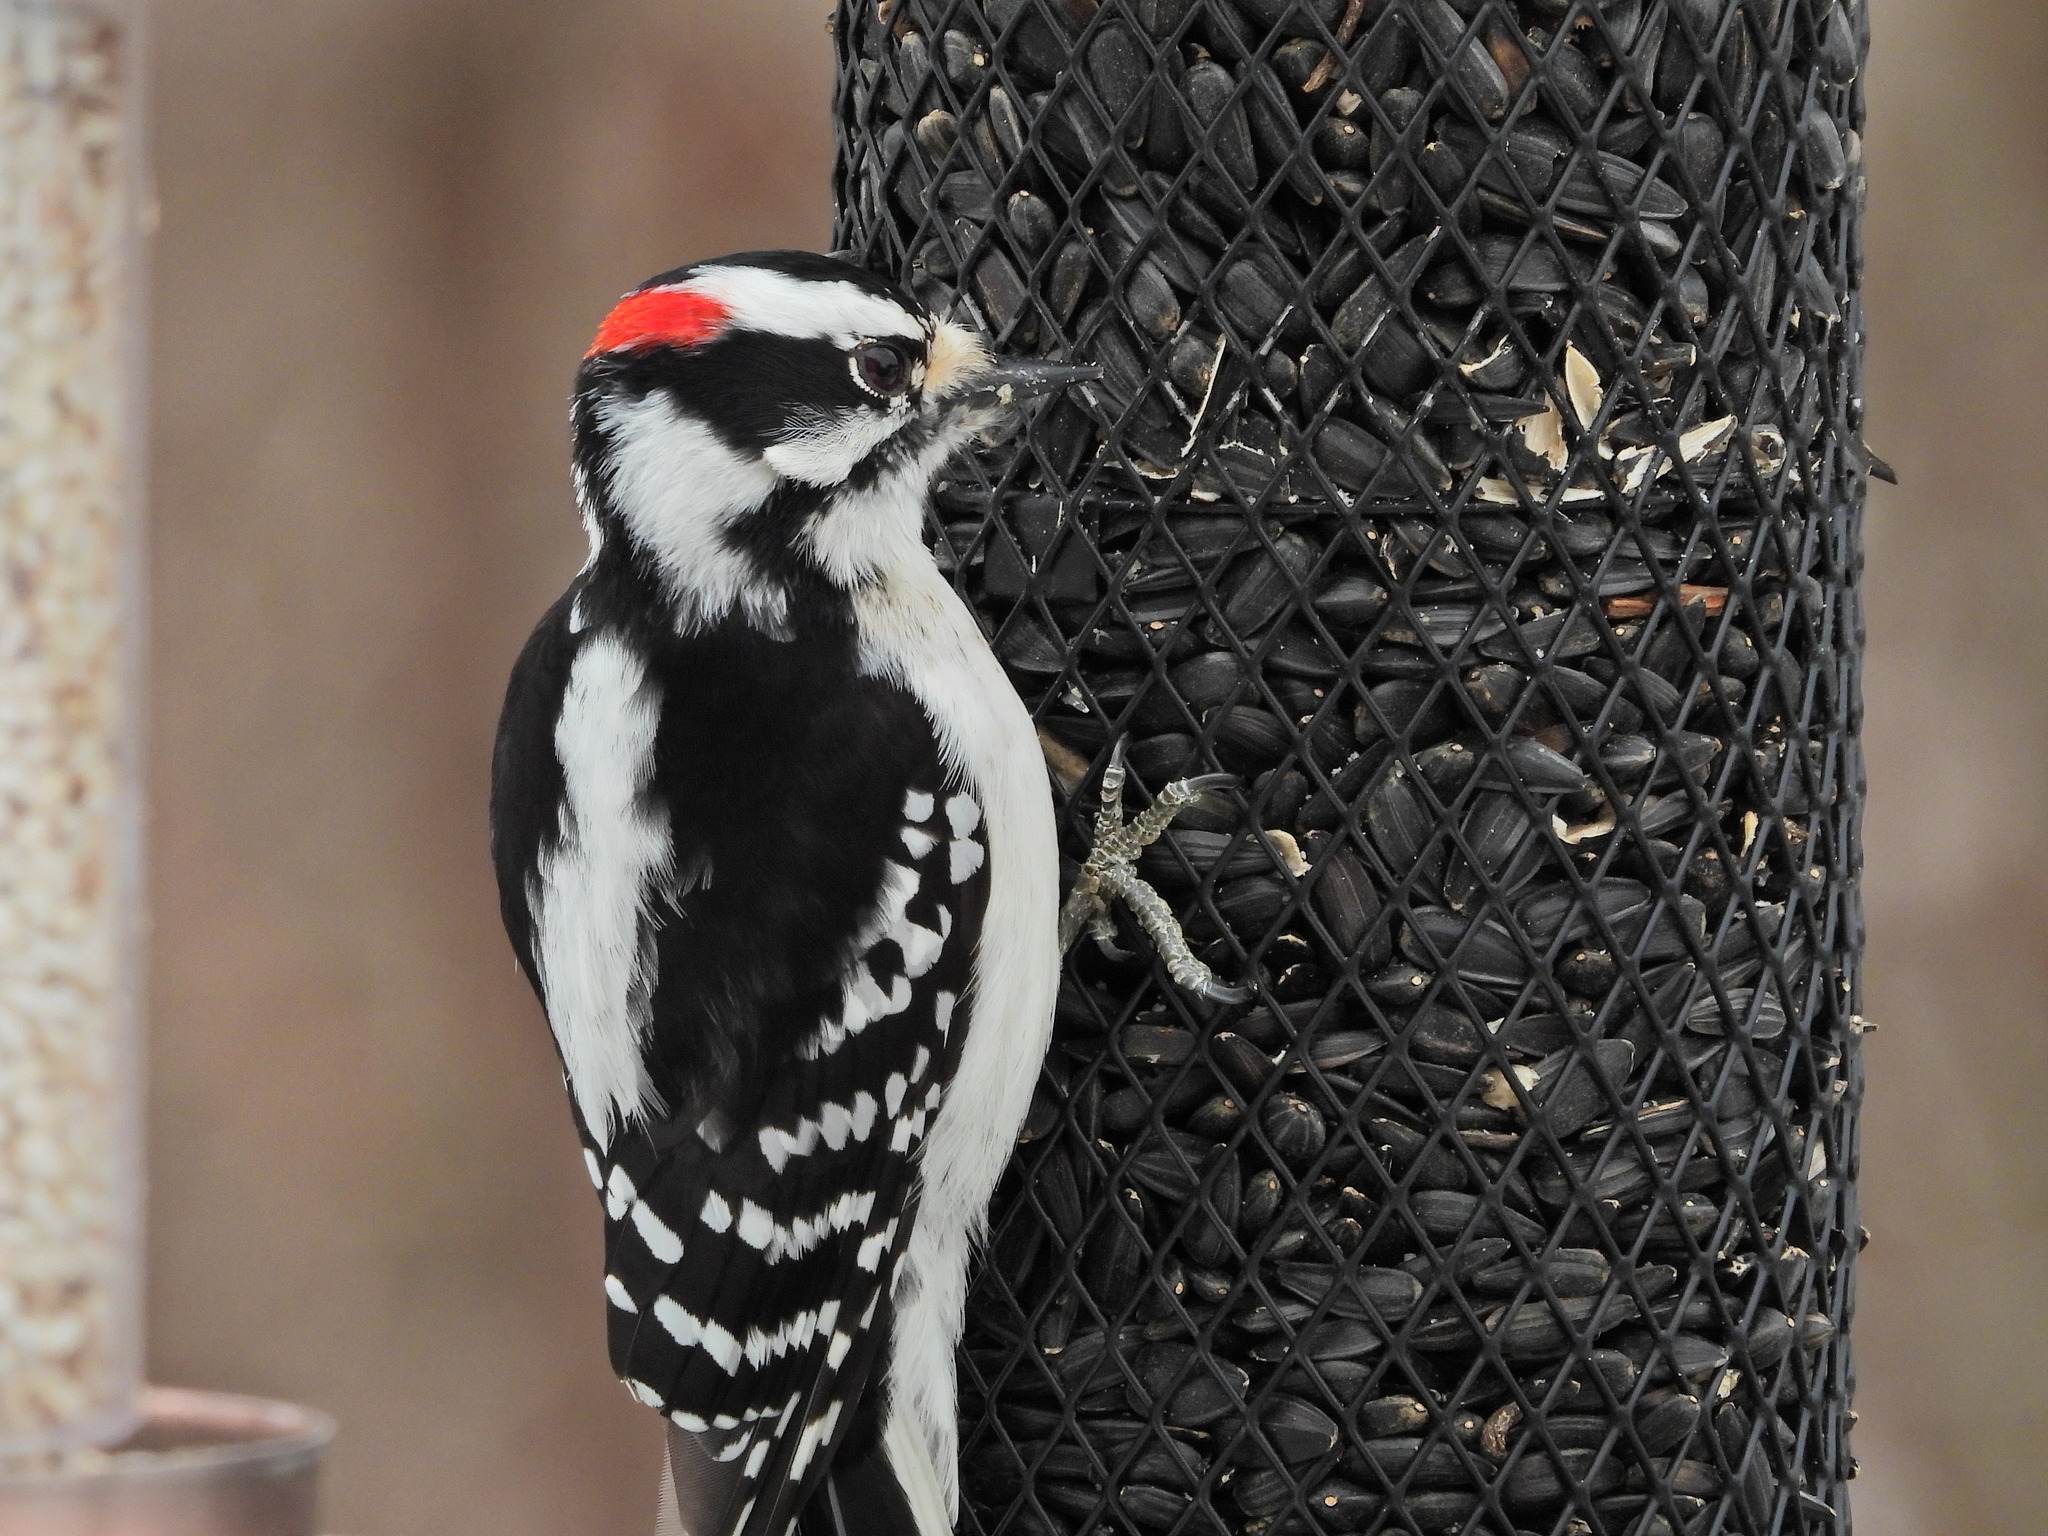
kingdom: Animalia
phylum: Chordata
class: Aves
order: Piciformes
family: Picidae
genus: Dryobates
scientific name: Dryobates pubescens
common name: Downy woodpecker
